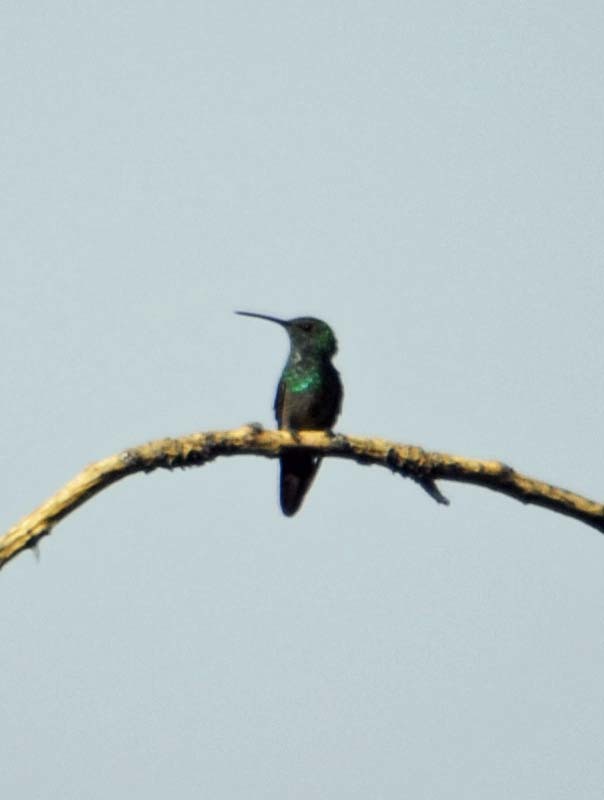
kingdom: Animalia
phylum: Chordata
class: Aves
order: Apodiformes
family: Trochilidae
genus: Saucerottia
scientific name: Saucerottia beryllina
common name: Berylline hummingbird
